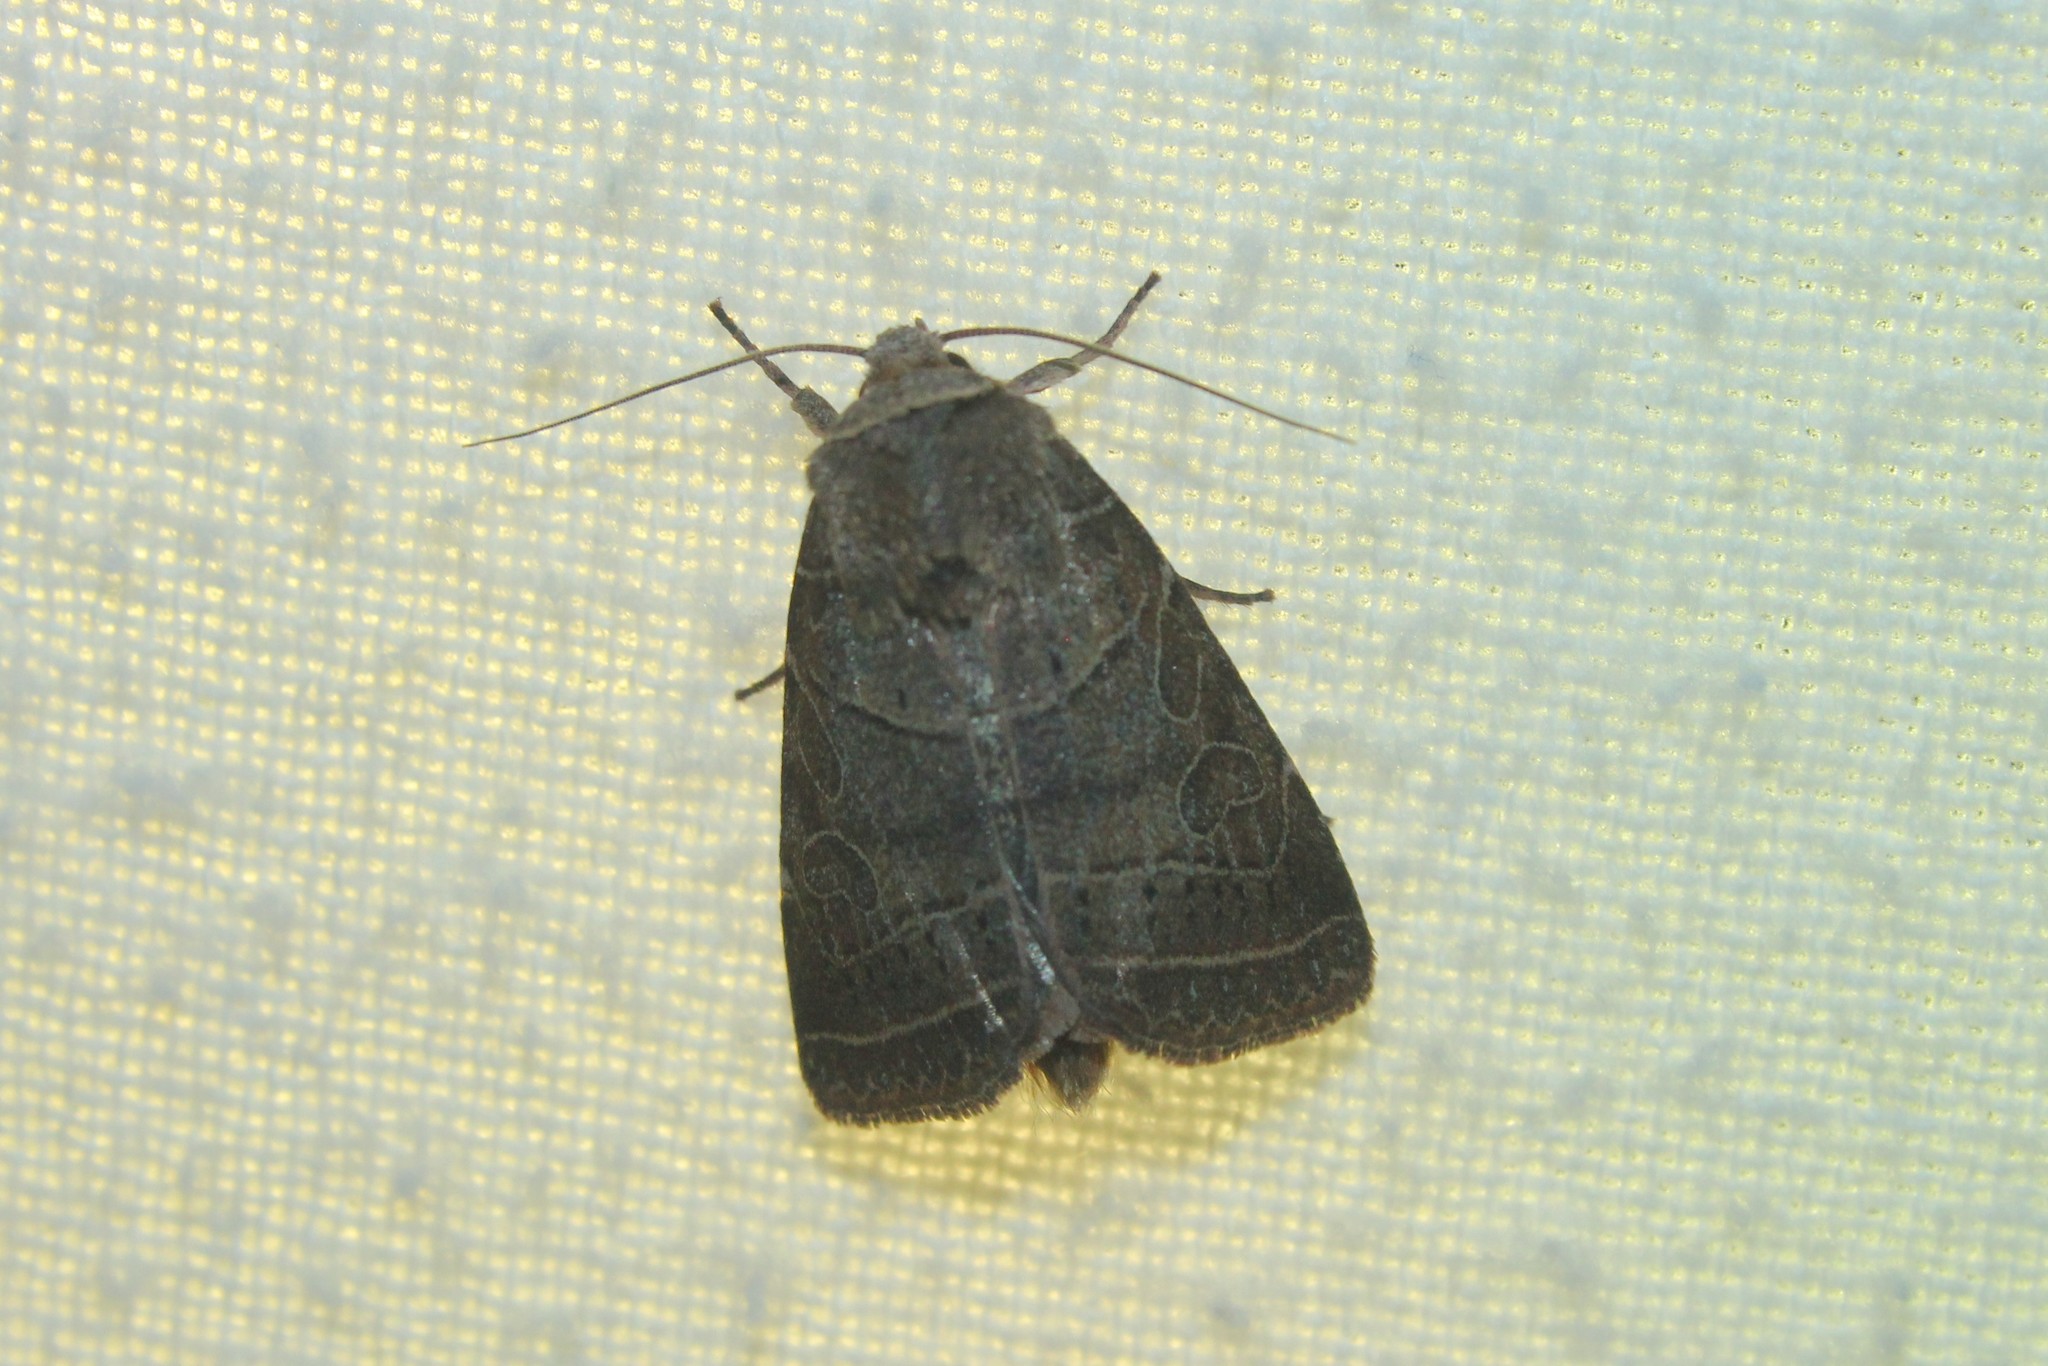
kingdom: Animalia
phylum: Arthropoda
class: Insecta
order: Lepidoptera
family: Noctuidae
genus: Orthodes
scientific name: Orthodes majuscula
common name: Rustic quaker
